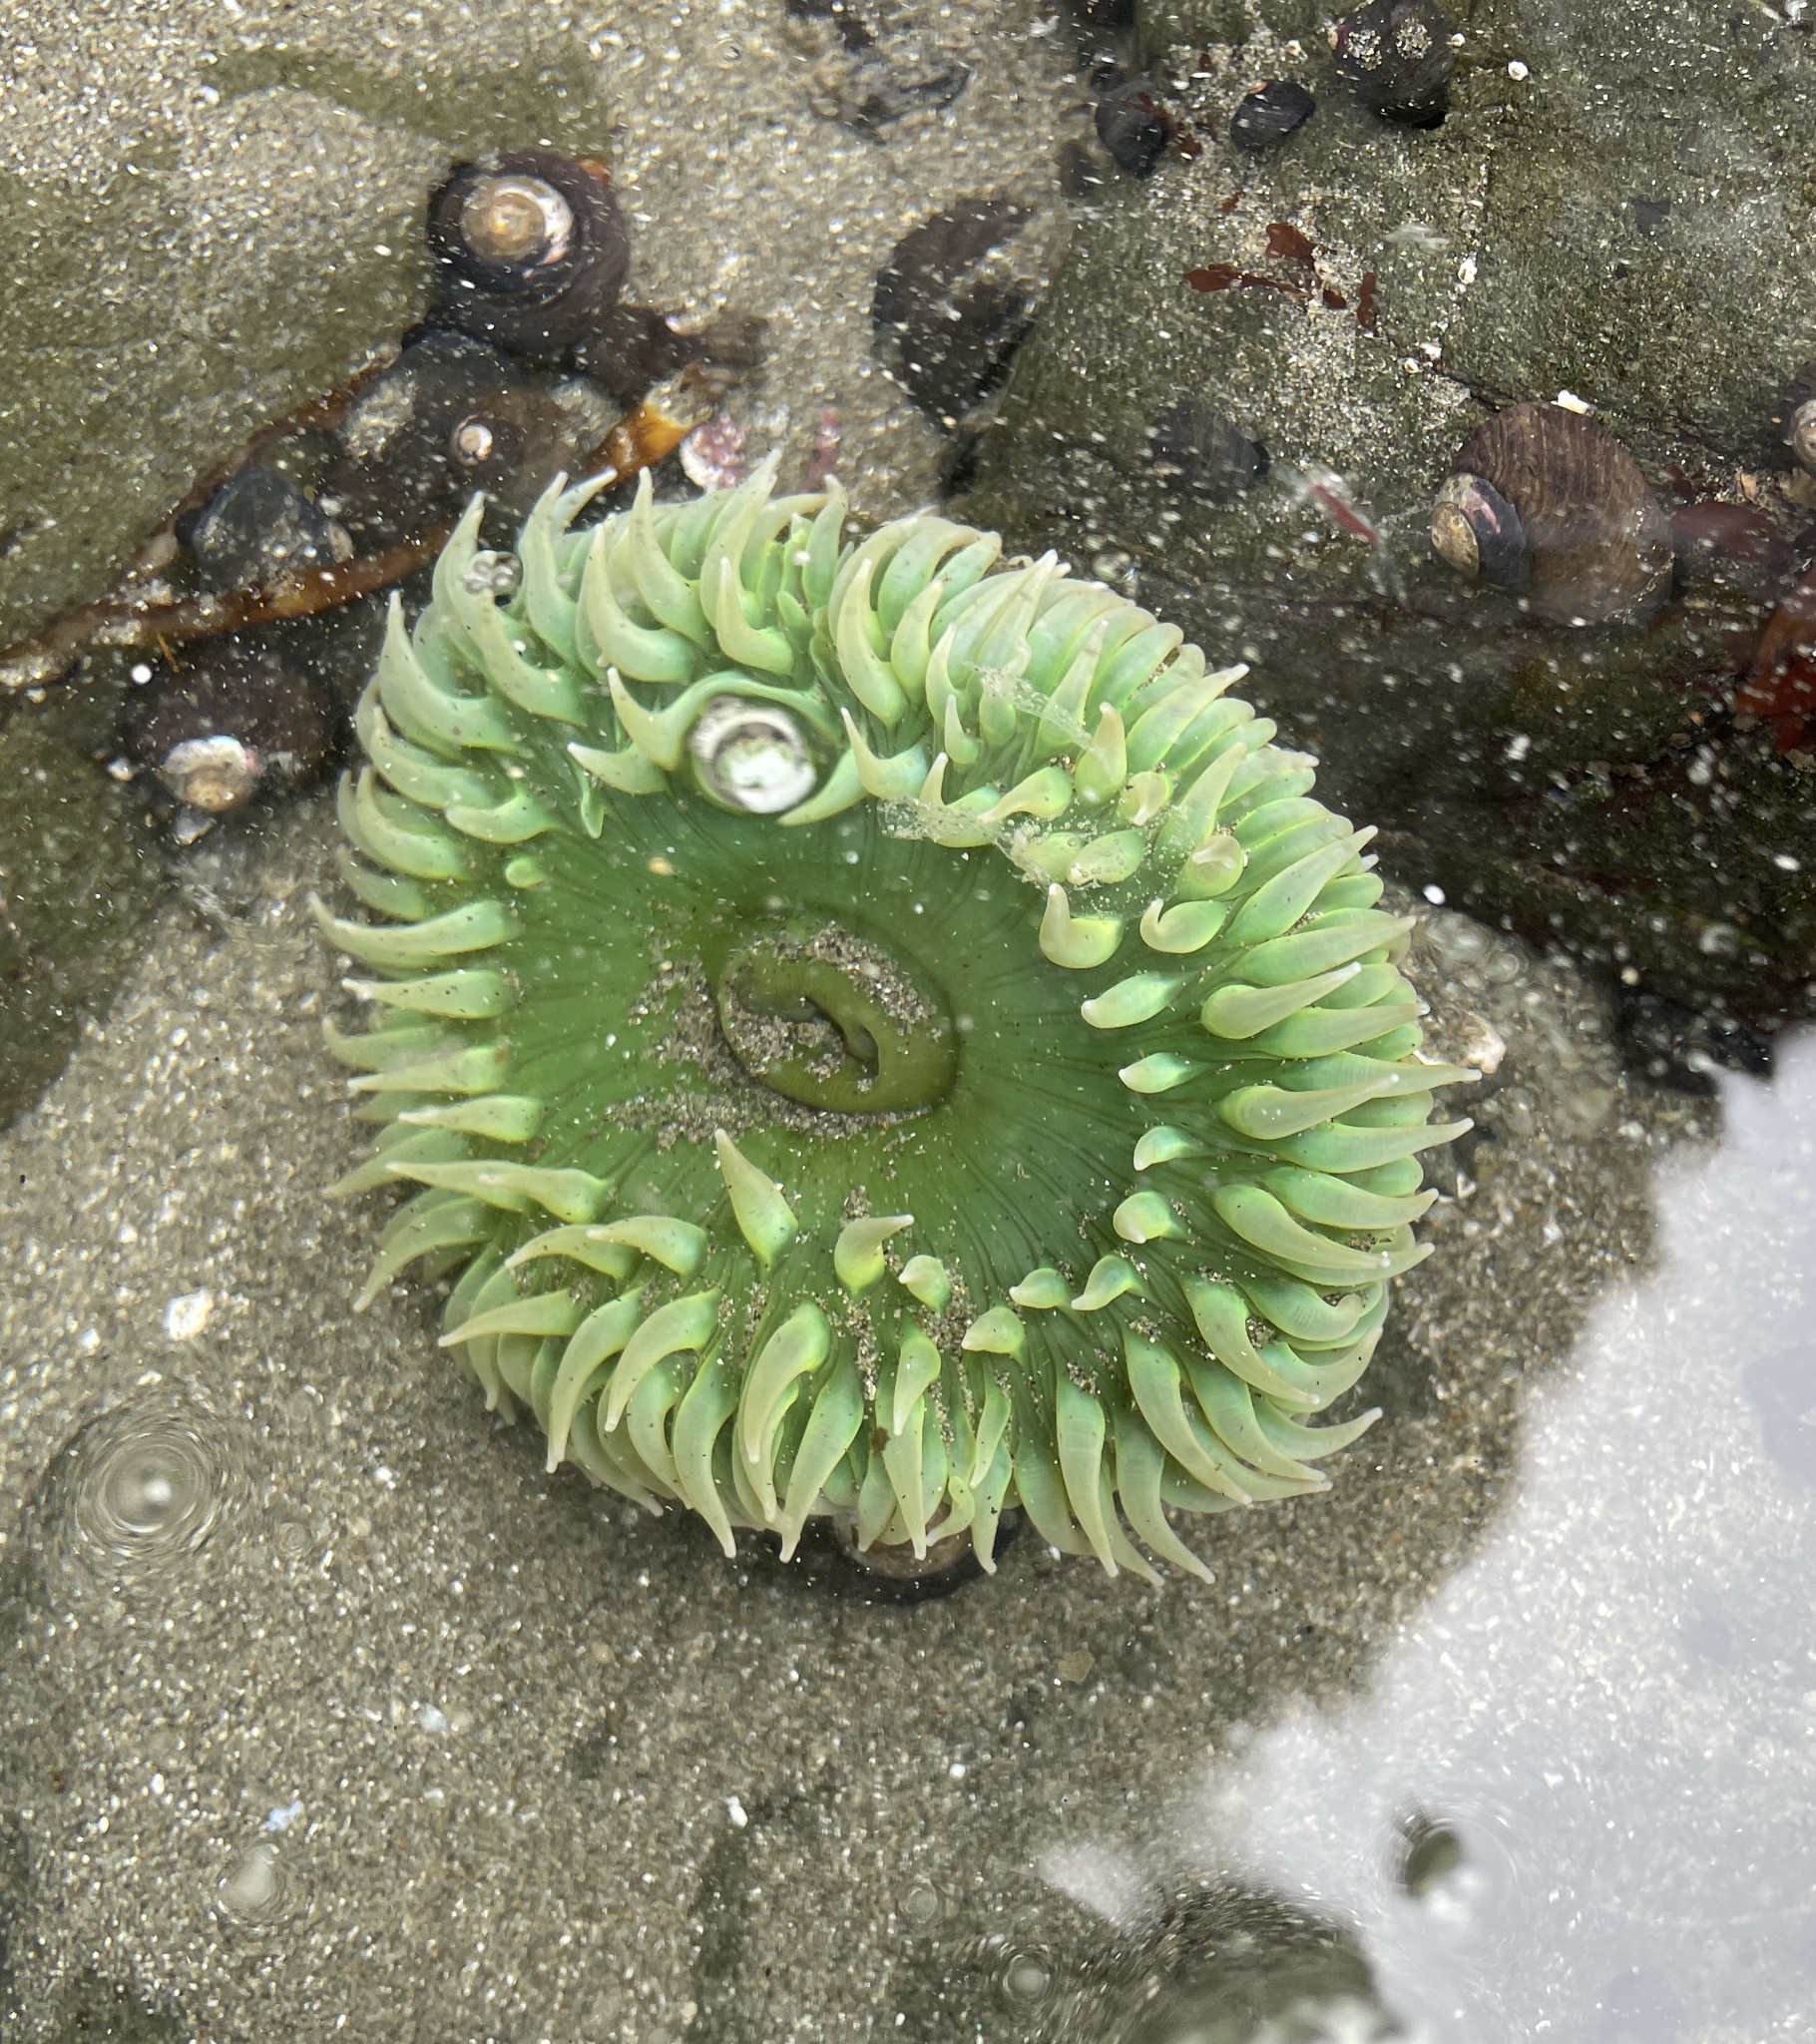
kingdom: Animalia
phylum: Cnidaria
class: Anthozoa
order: Actiniaria
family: Actiniidae
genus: Anthopleura
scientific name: Anthopleura xanthogrammica
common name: Giant green anemone
